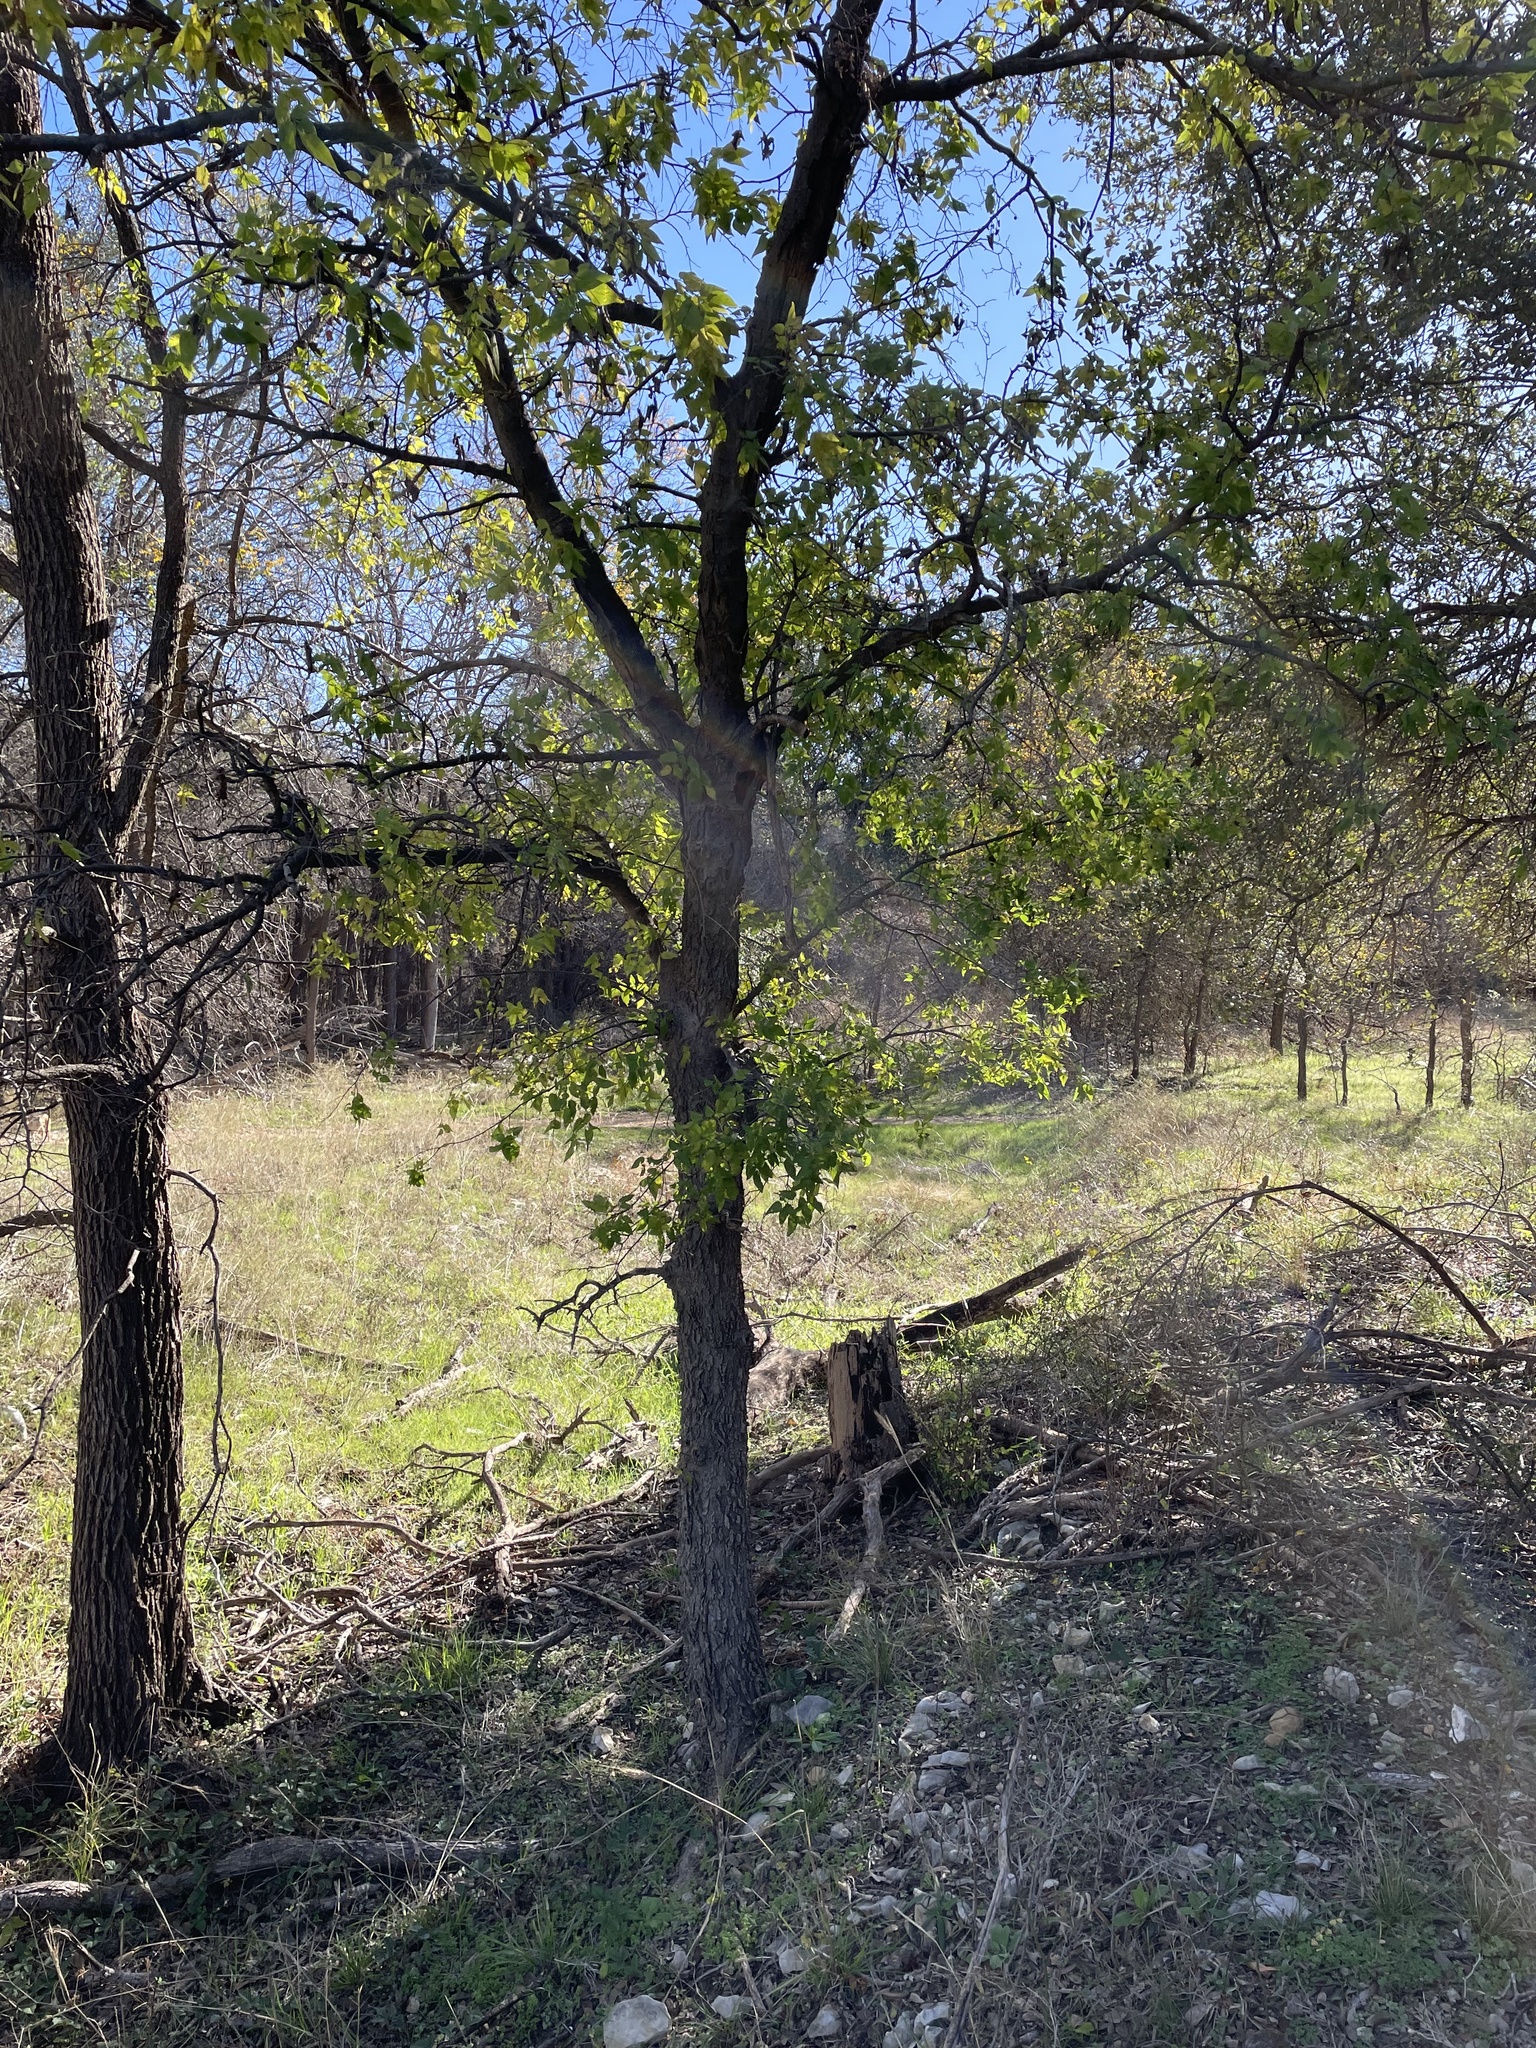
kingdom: Plantae
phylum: Tracheophyta
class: Magnoliopsida
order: Rosales
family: Cannabaceae
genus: Celtis
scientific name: Celtis laevigata
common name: Sugarberry
